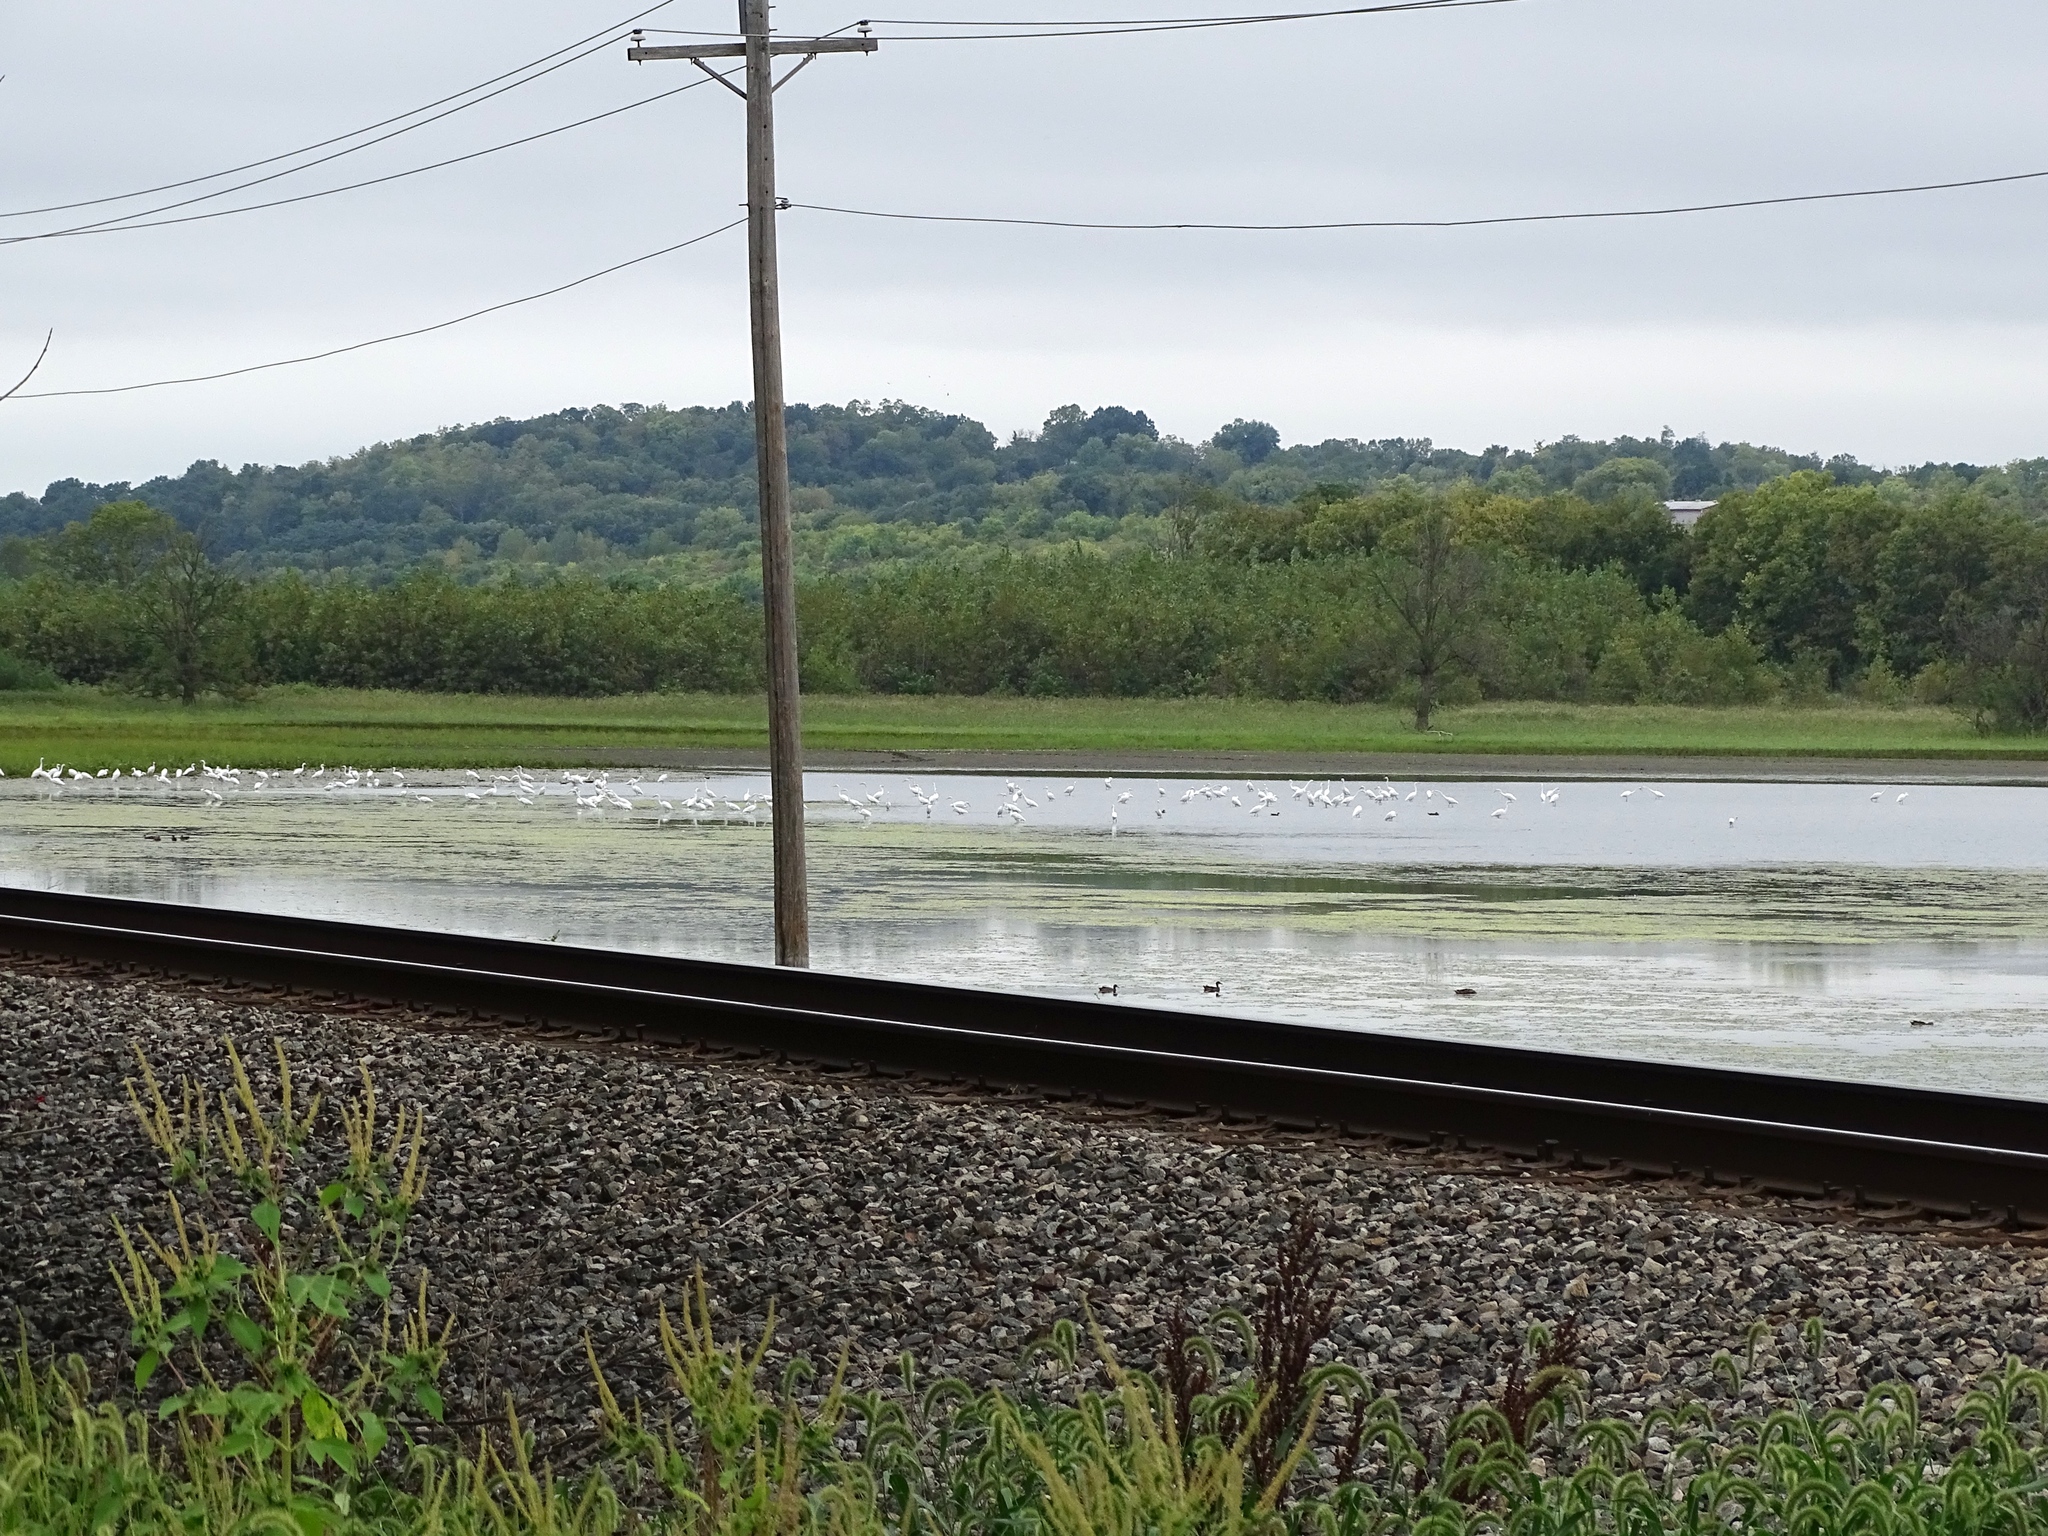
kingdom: Animalia
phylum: Chordata
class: Aves
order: Pelecaniformes
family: Ardeidae
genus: Ardea
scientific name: Ardea alba
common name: Great egret
